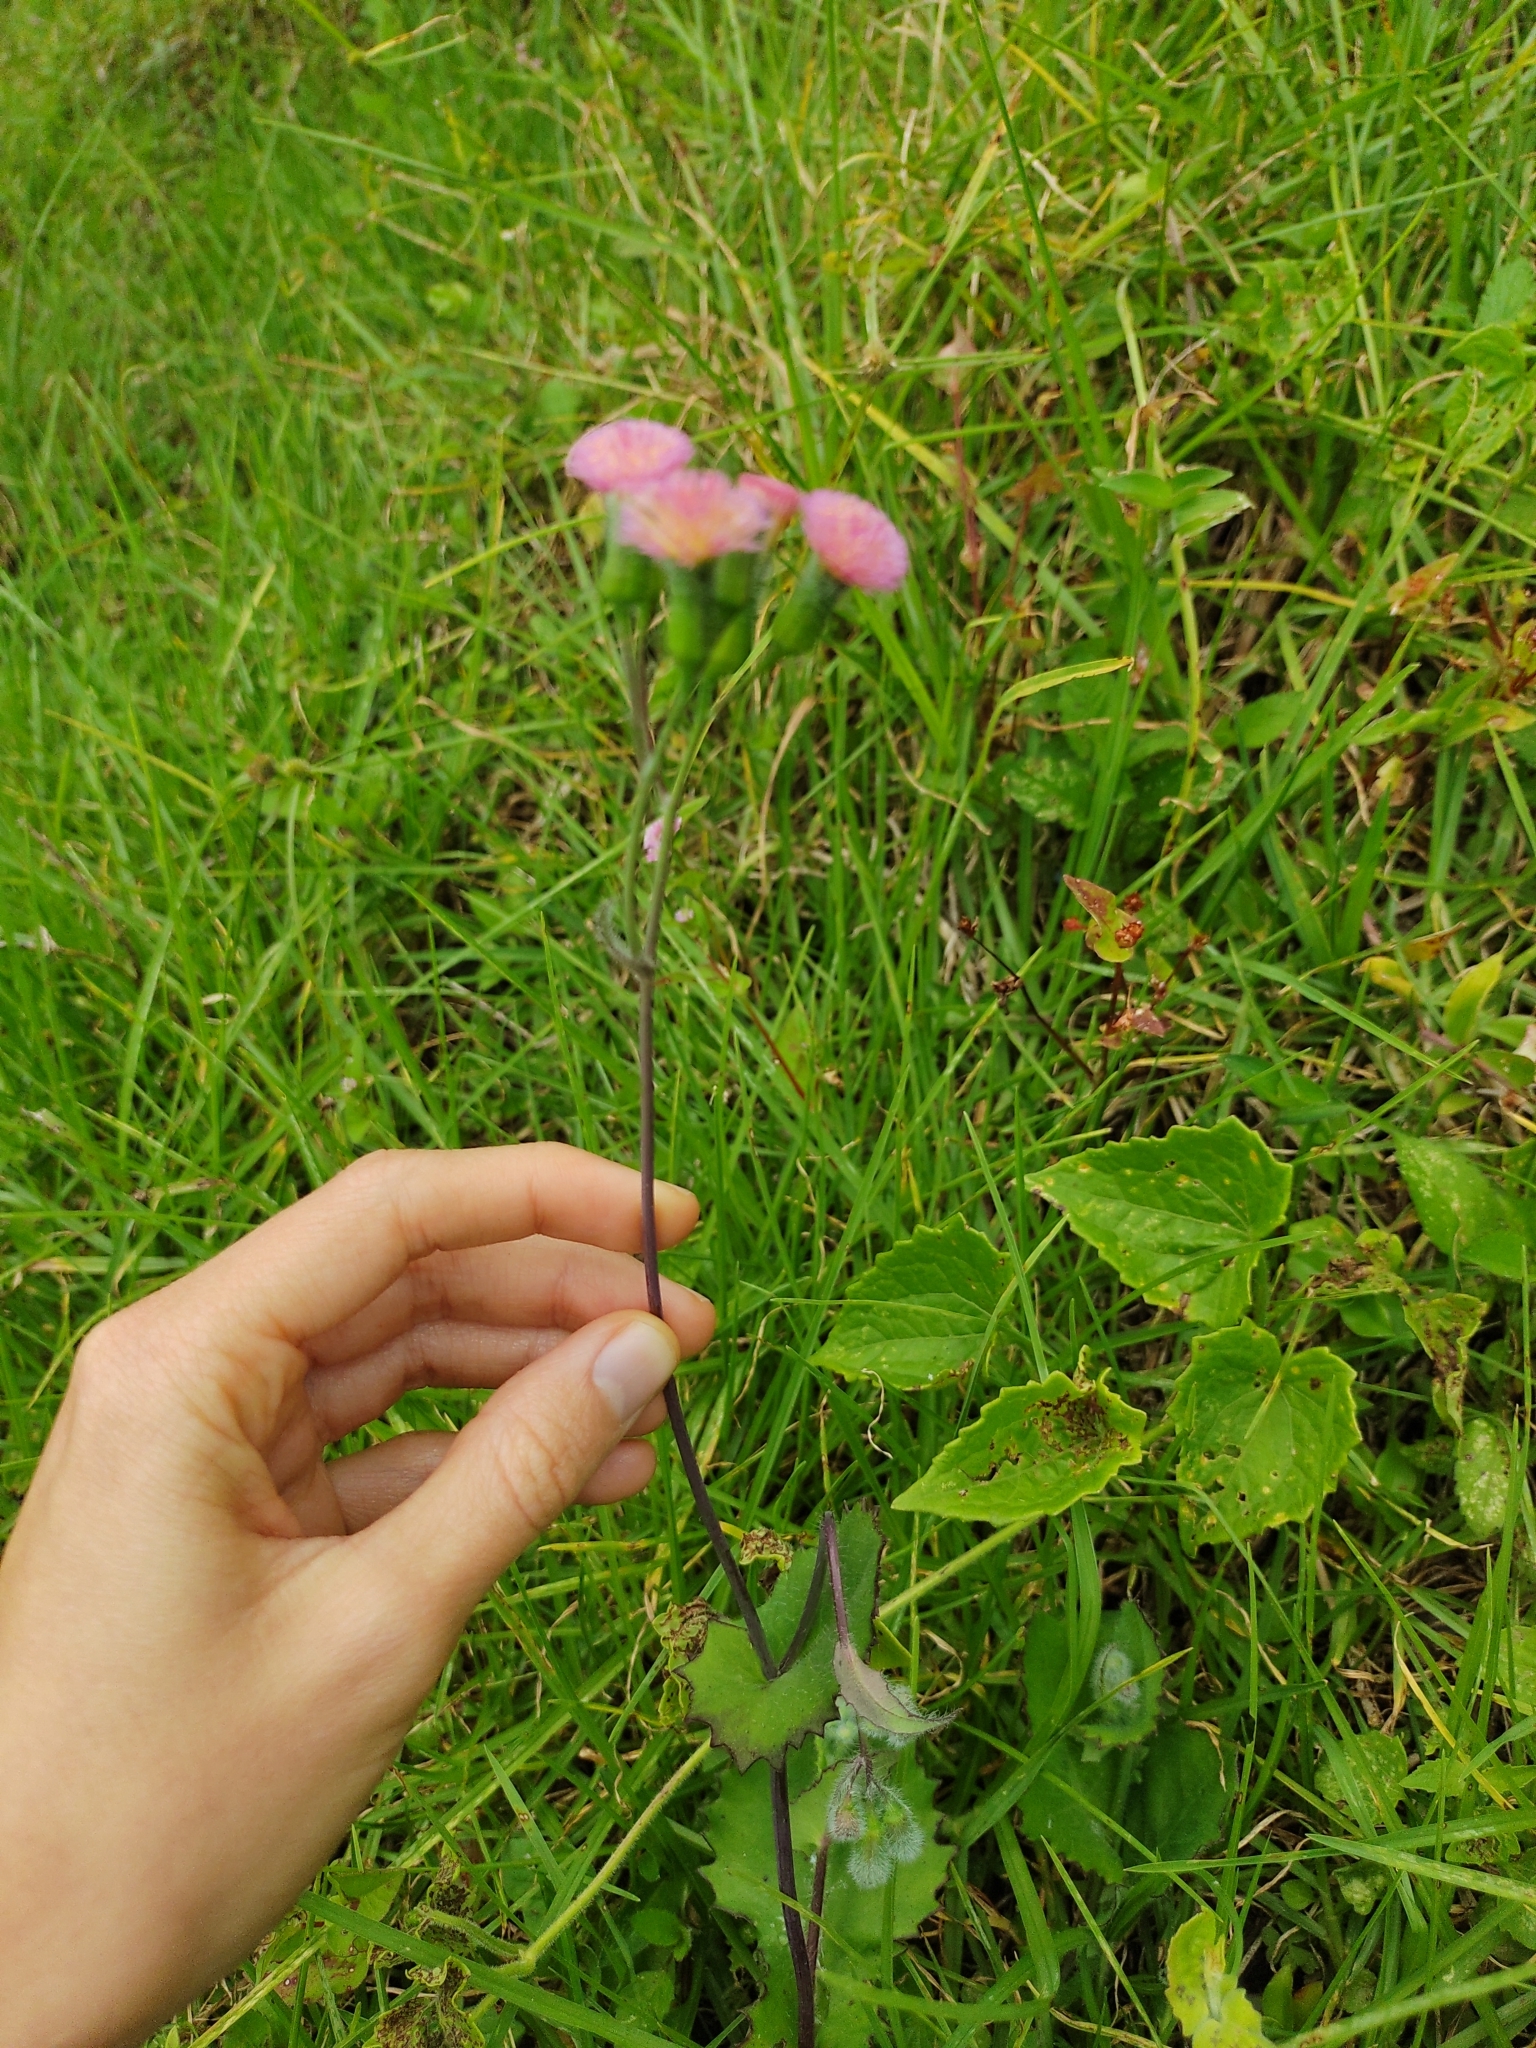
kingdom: Plantae
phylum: Tracheophyta
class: Magnoliopsida
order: Asterales
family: Asteraceae
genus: Emilia
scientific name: Emilia sonchifolia
